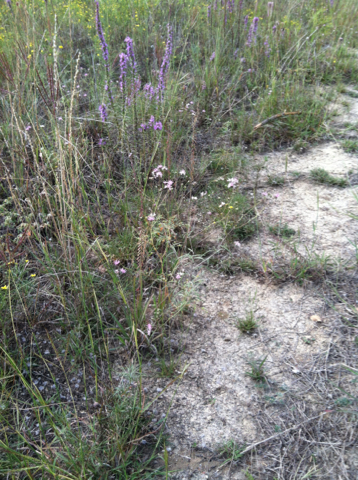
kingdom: Plantae
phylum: Tracheophyta
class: Magnoliopsida
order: Asterales
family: Asteraceae
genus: Palafoxia
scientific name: Palafoxia callosa
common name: Small palafox
